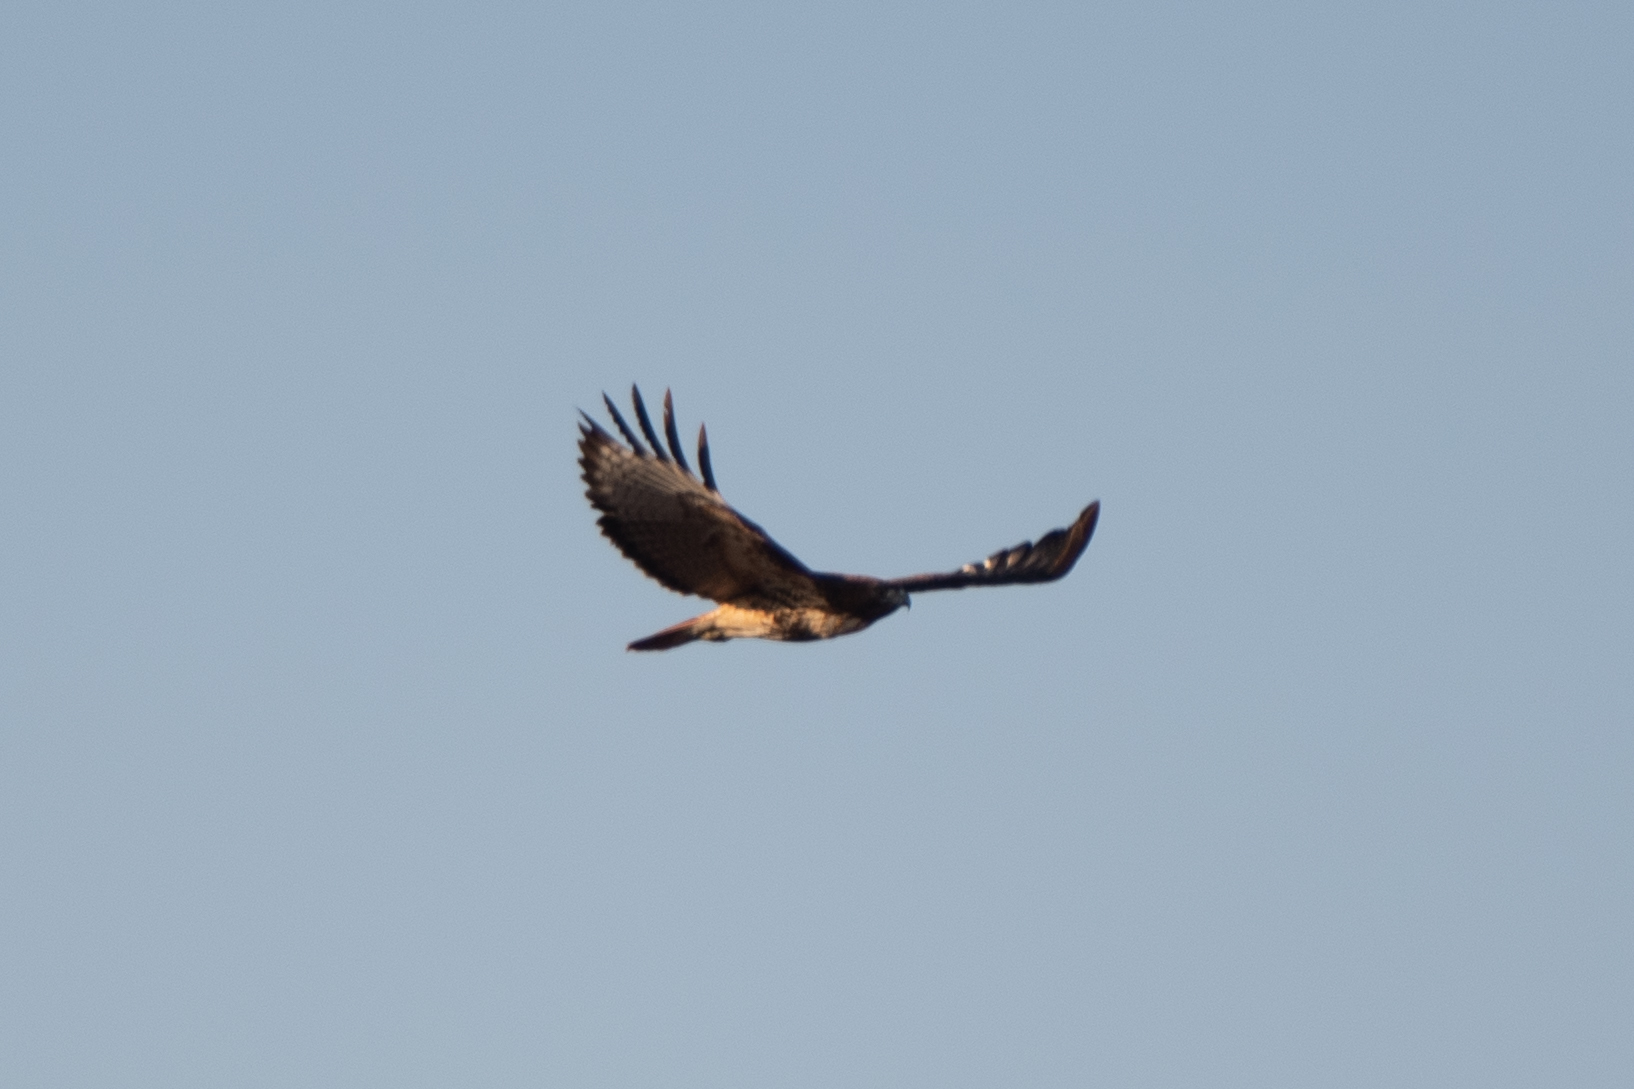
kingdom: Animalia
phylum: Chordata
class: Aves
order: Accipitriformes
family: Accipitridae
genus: Buteo
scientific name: Buteo jamaicensis
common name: Red-tailed hawk
